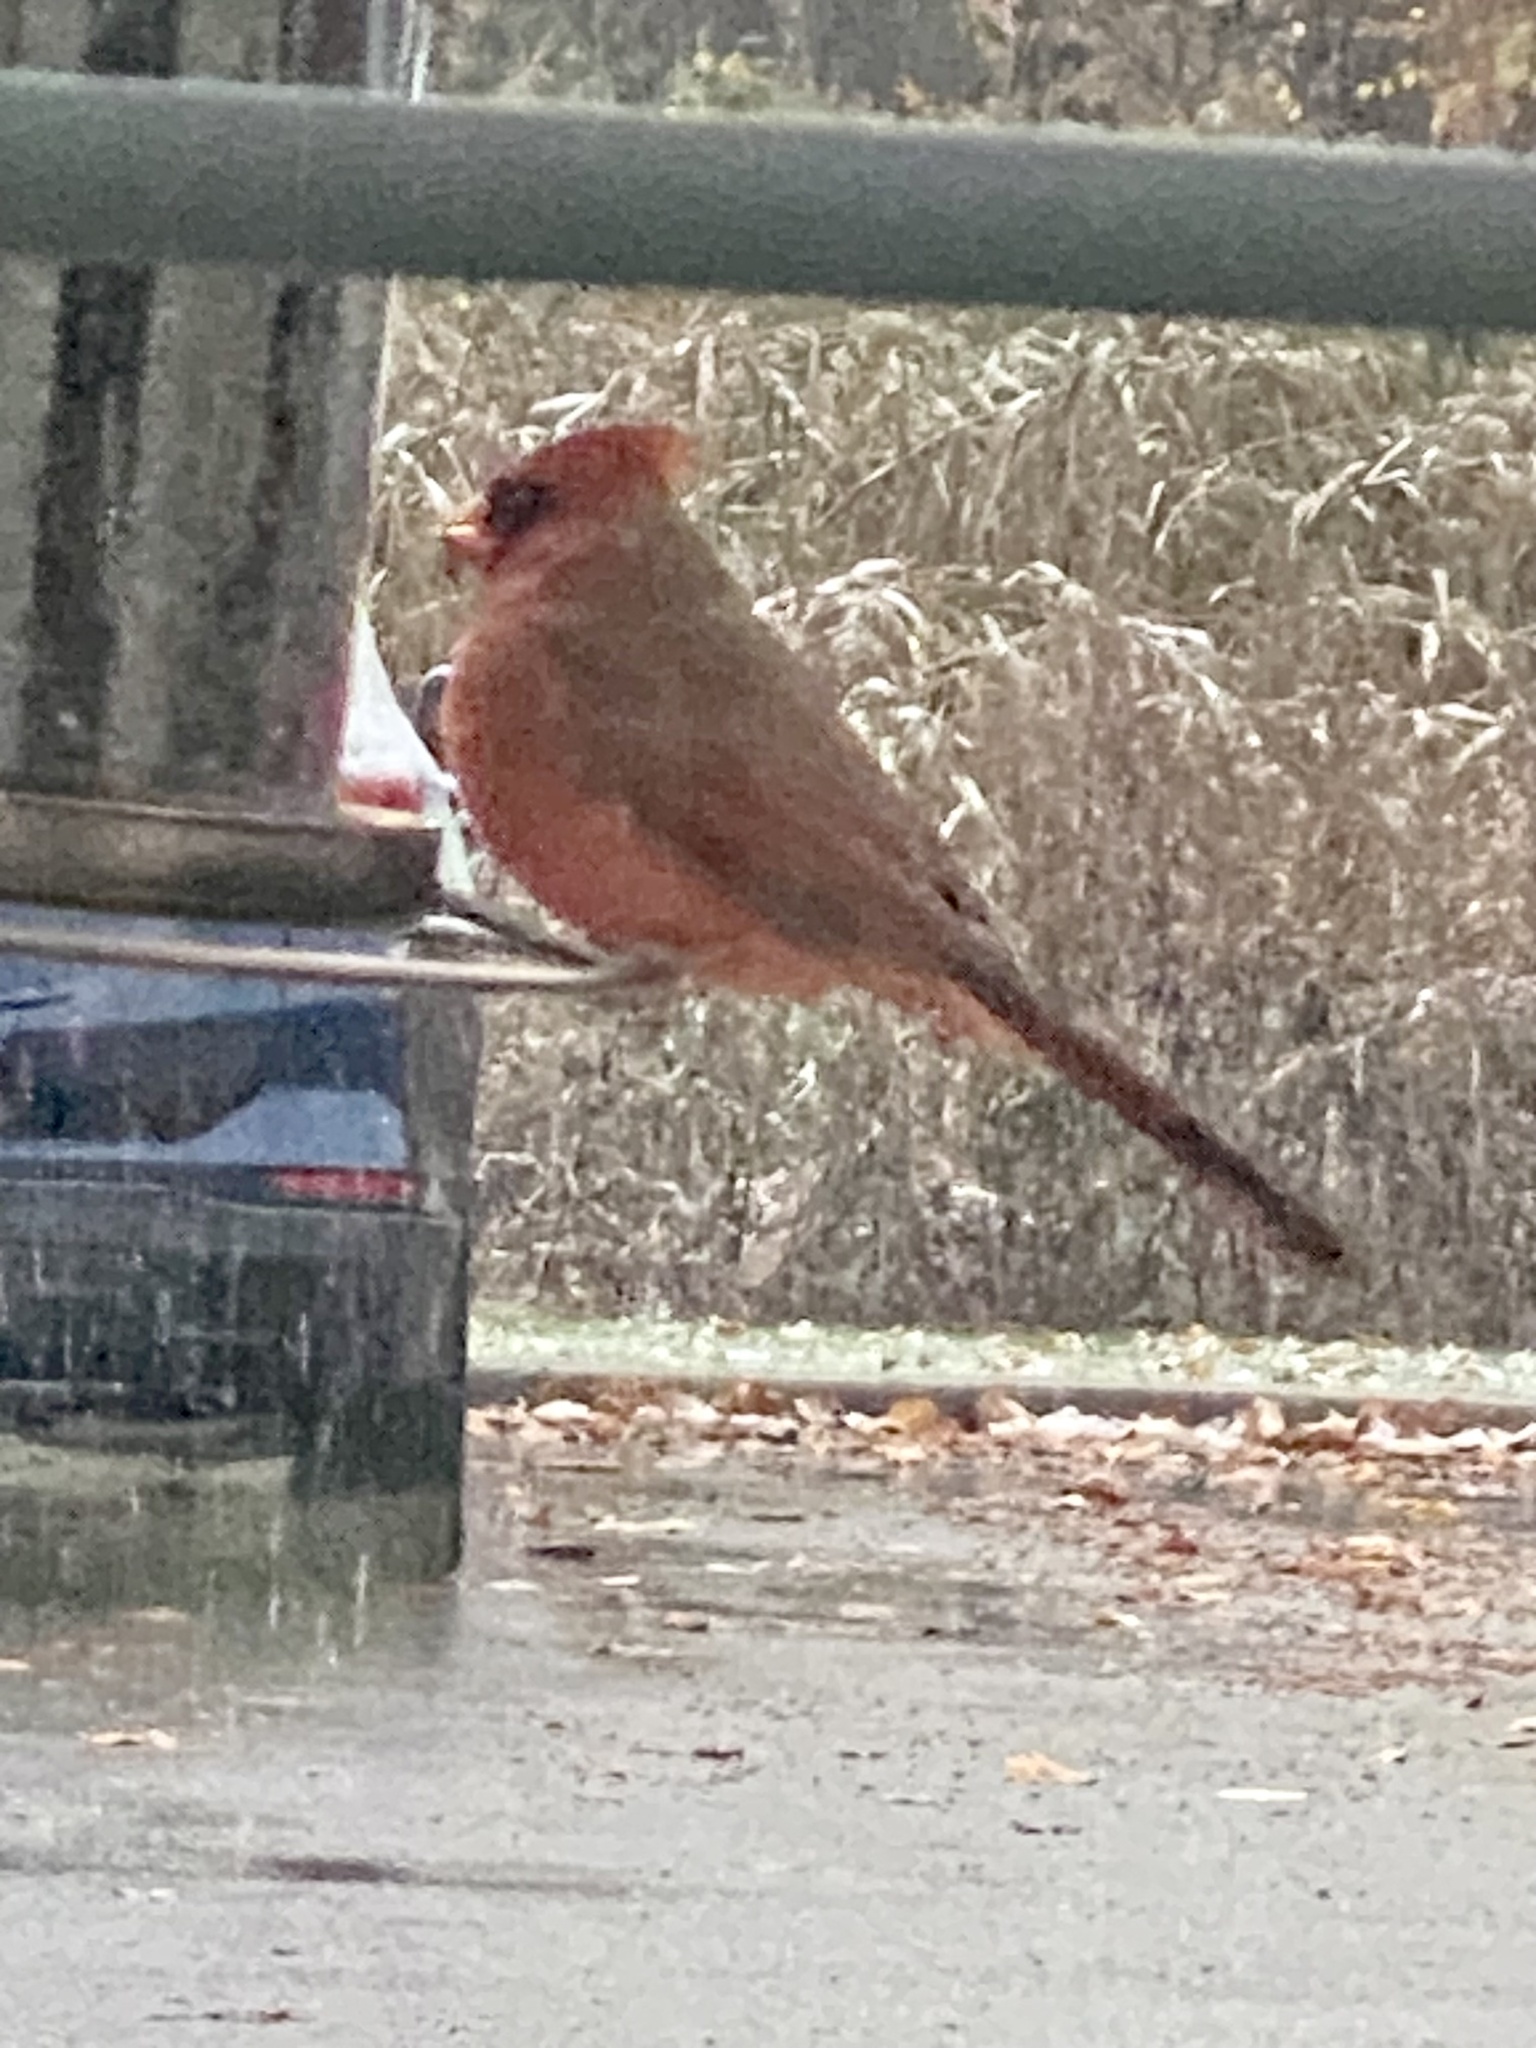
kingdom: Animalia
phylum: Chordata
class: Aves
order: Passeriformes
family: Cardinalidae
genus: Cardinalis
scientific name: Cardinalis cardinalis
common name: Northern cardinal
